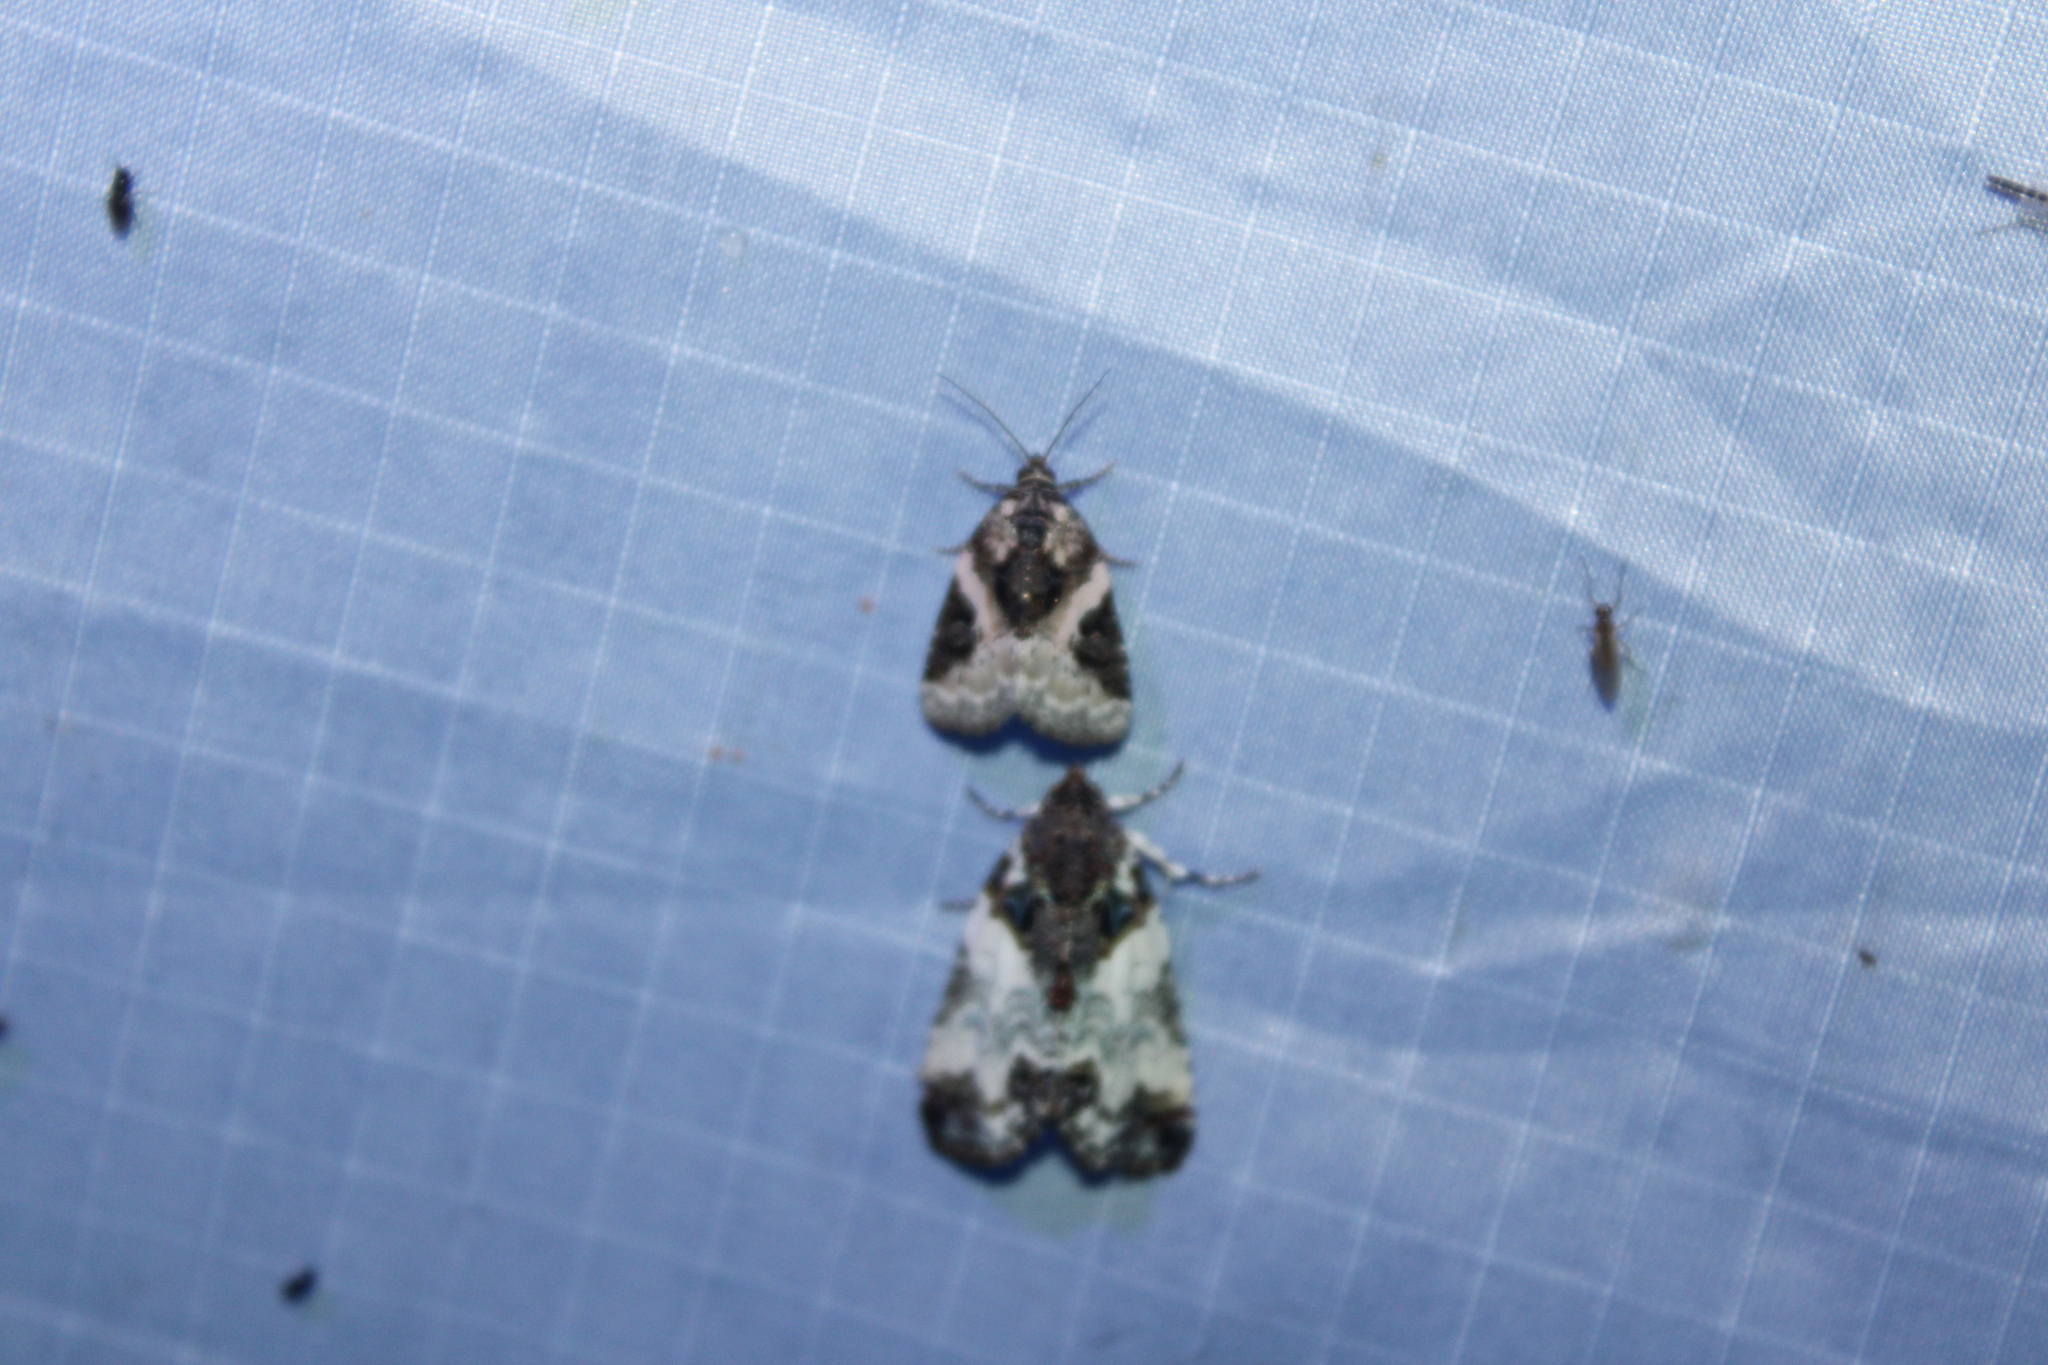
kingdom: Animalia
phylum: Arthropoda
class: Insecta
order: Lepidoptera
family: Noctuidae
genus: Pseudeustrotia
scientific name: Pseudeustrotia carneola
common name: Pink-barred lithacodia moth
